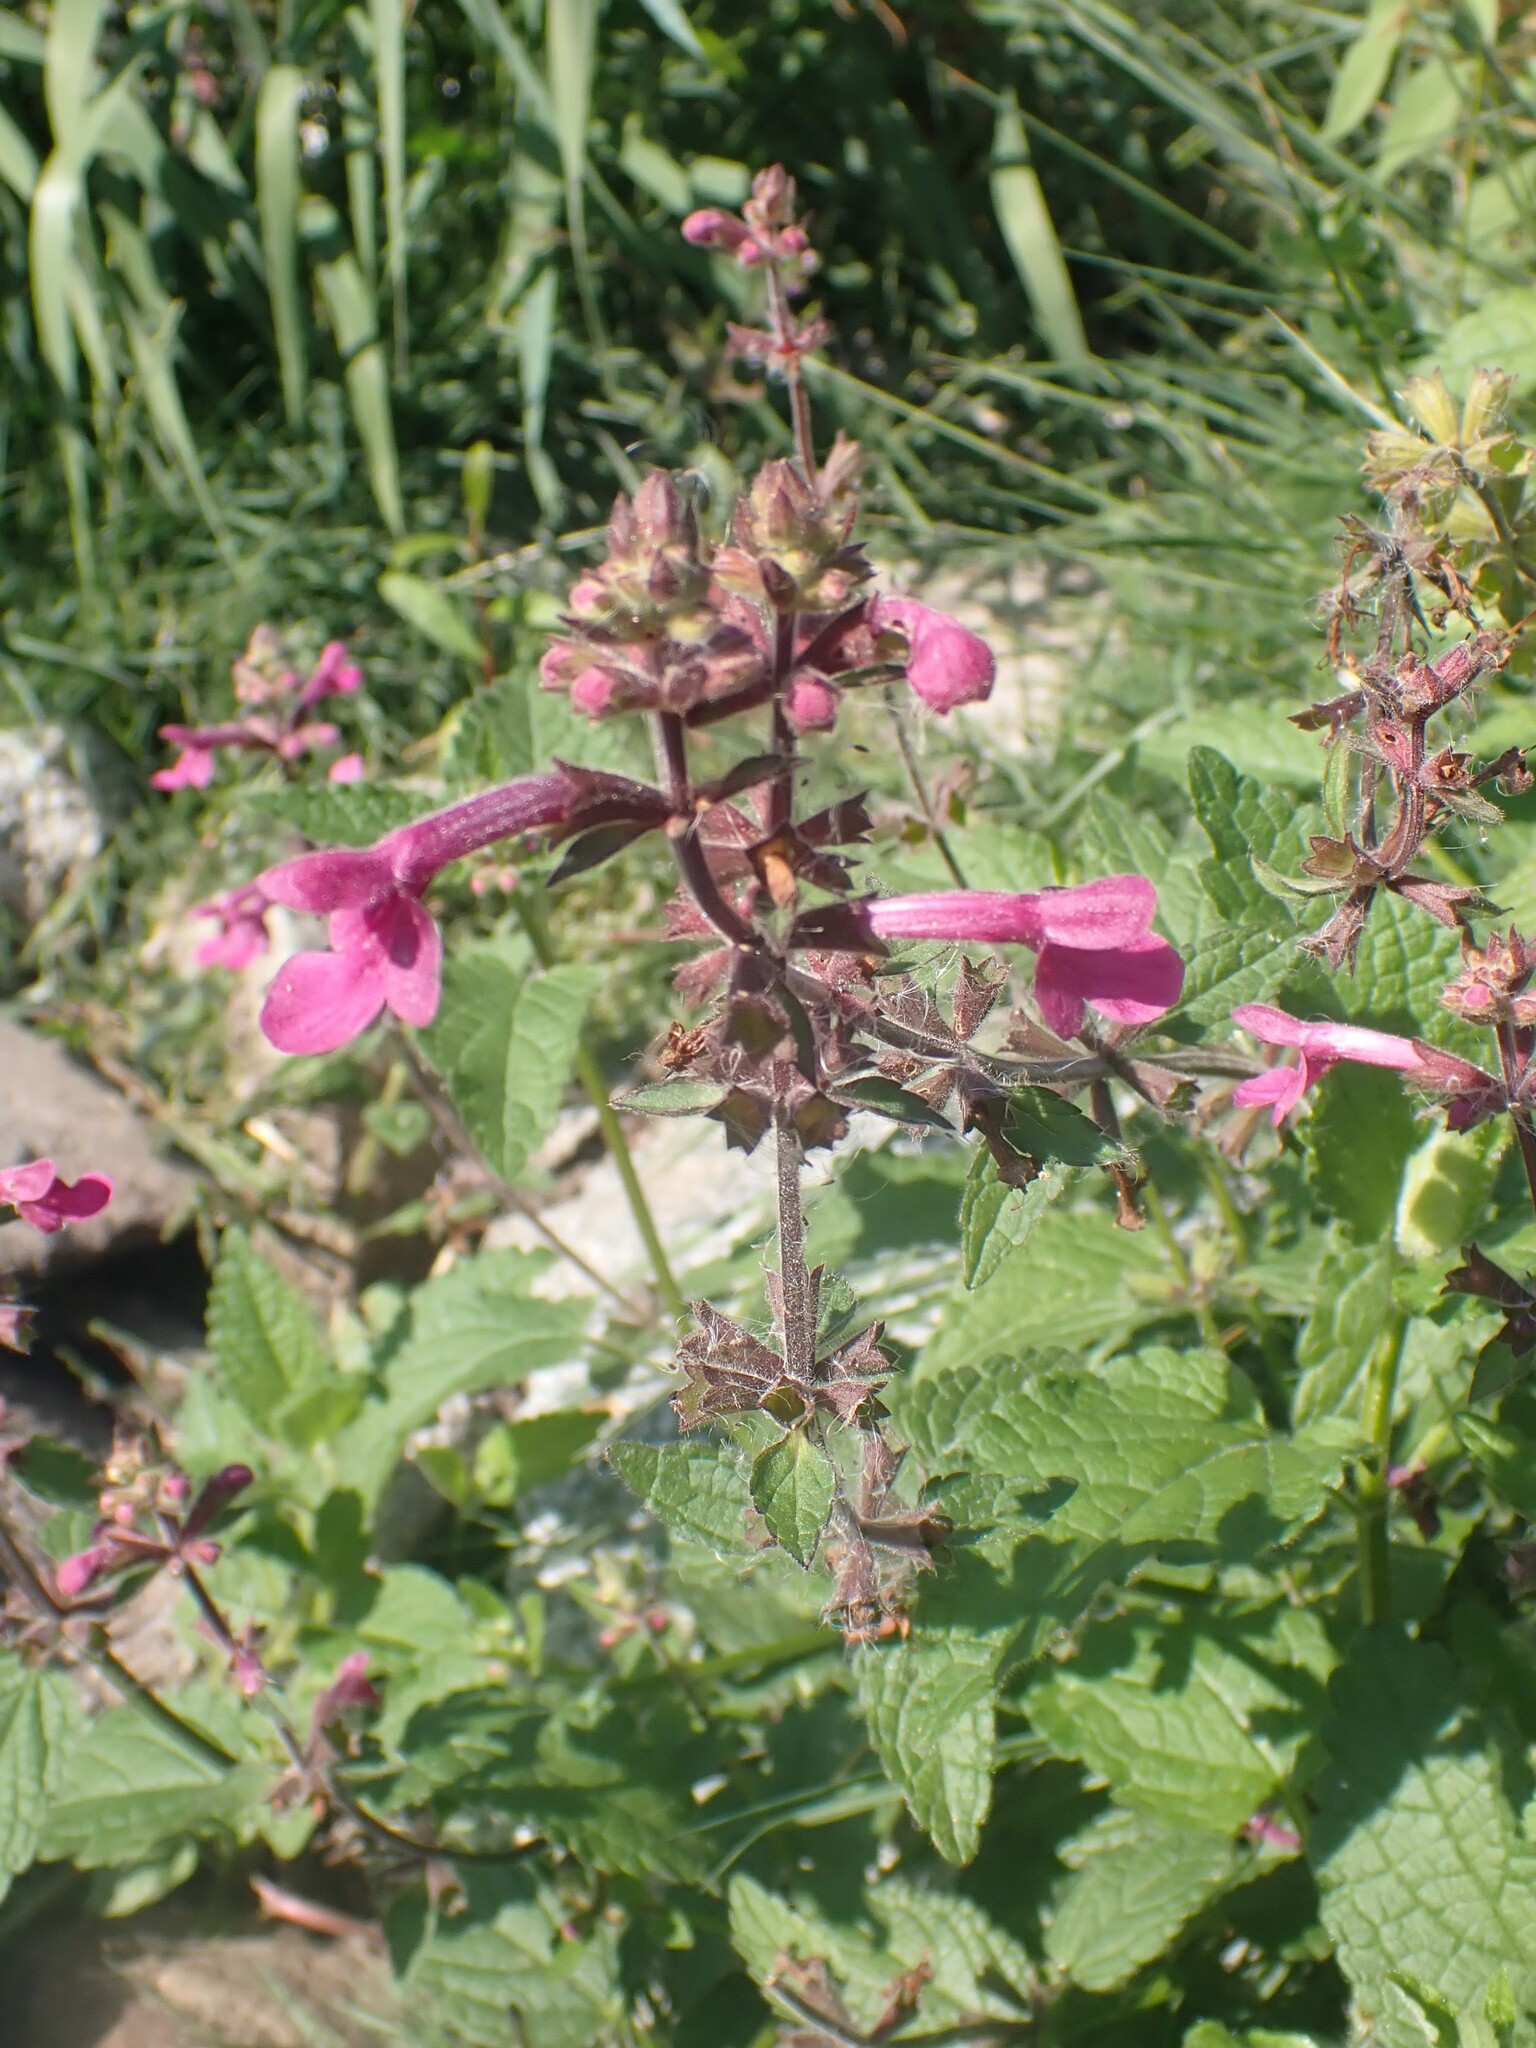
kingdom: Plantae
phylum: Tracheophyta
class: Magnoliopsida
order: Lamiales
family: Lamiaceae
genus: Stachys
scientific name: Stachys chamissonis
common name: Coastal hedge-nettle
